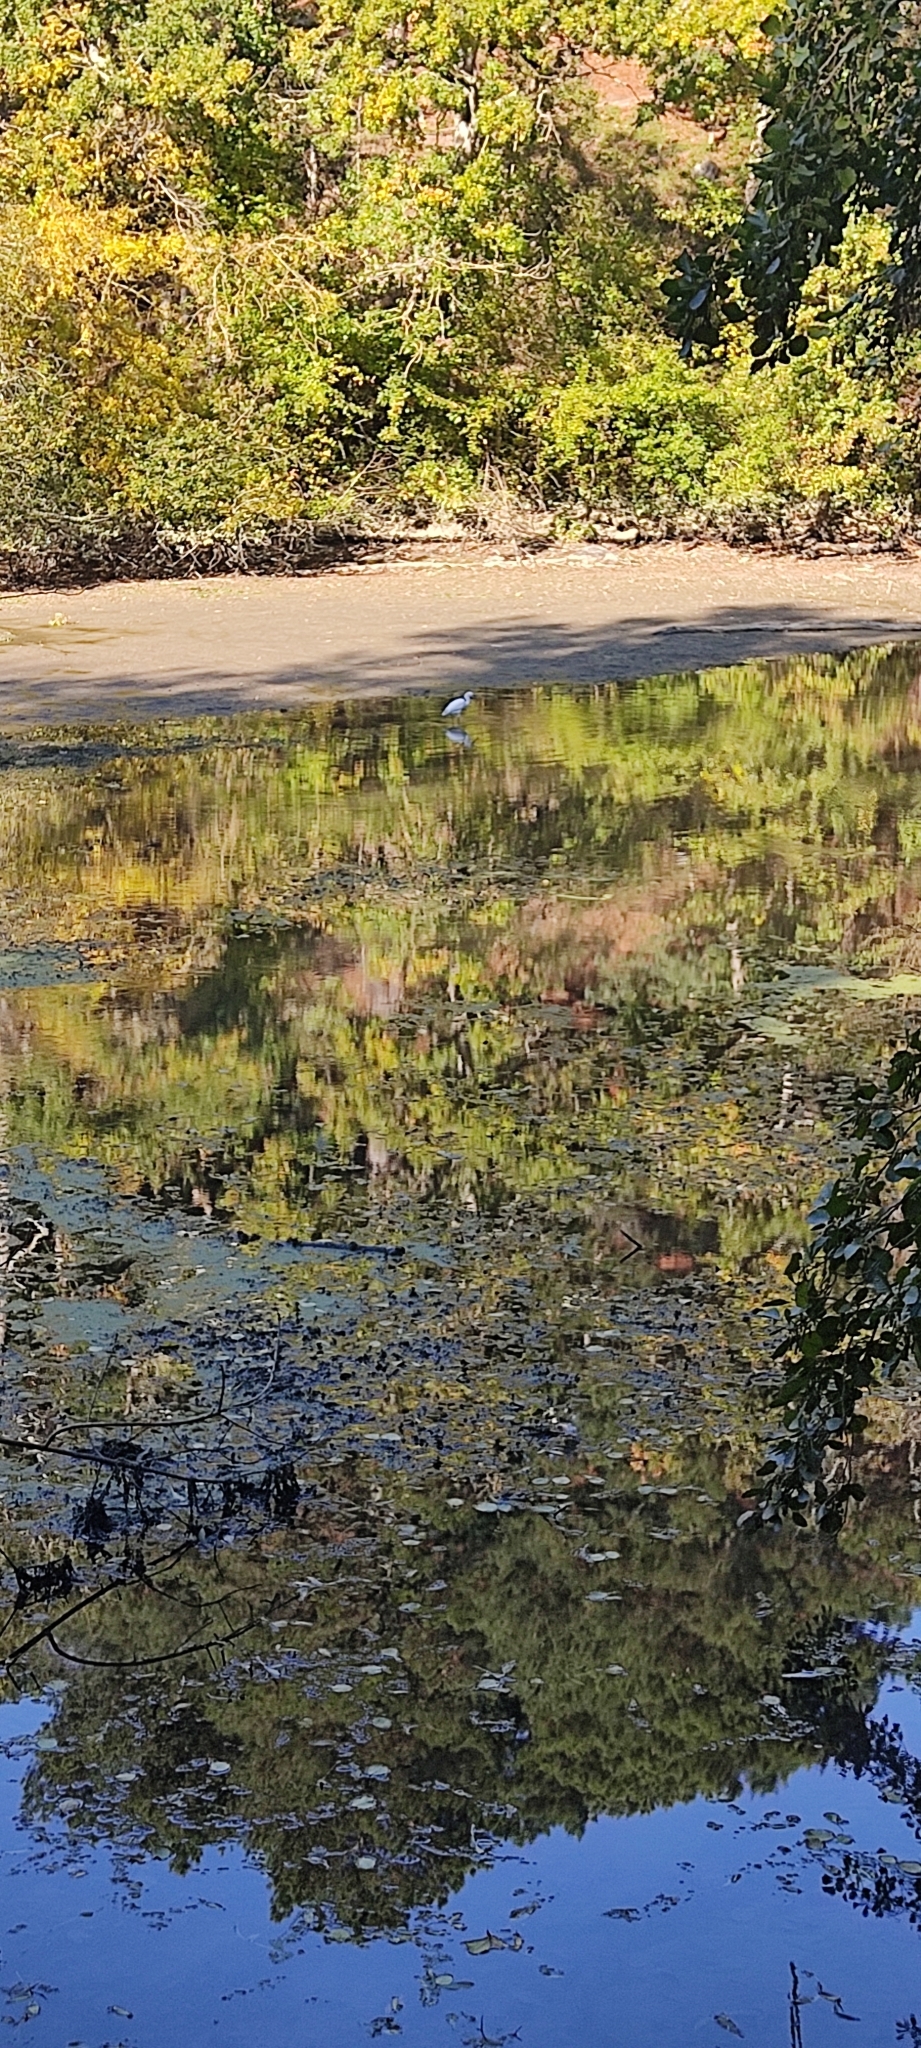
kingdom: Animalia
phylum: Chordata
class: Aves
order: Pelecaniformes
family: Ardeidae
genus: Egretta
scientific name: Egretta garzetta
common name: Little egret
